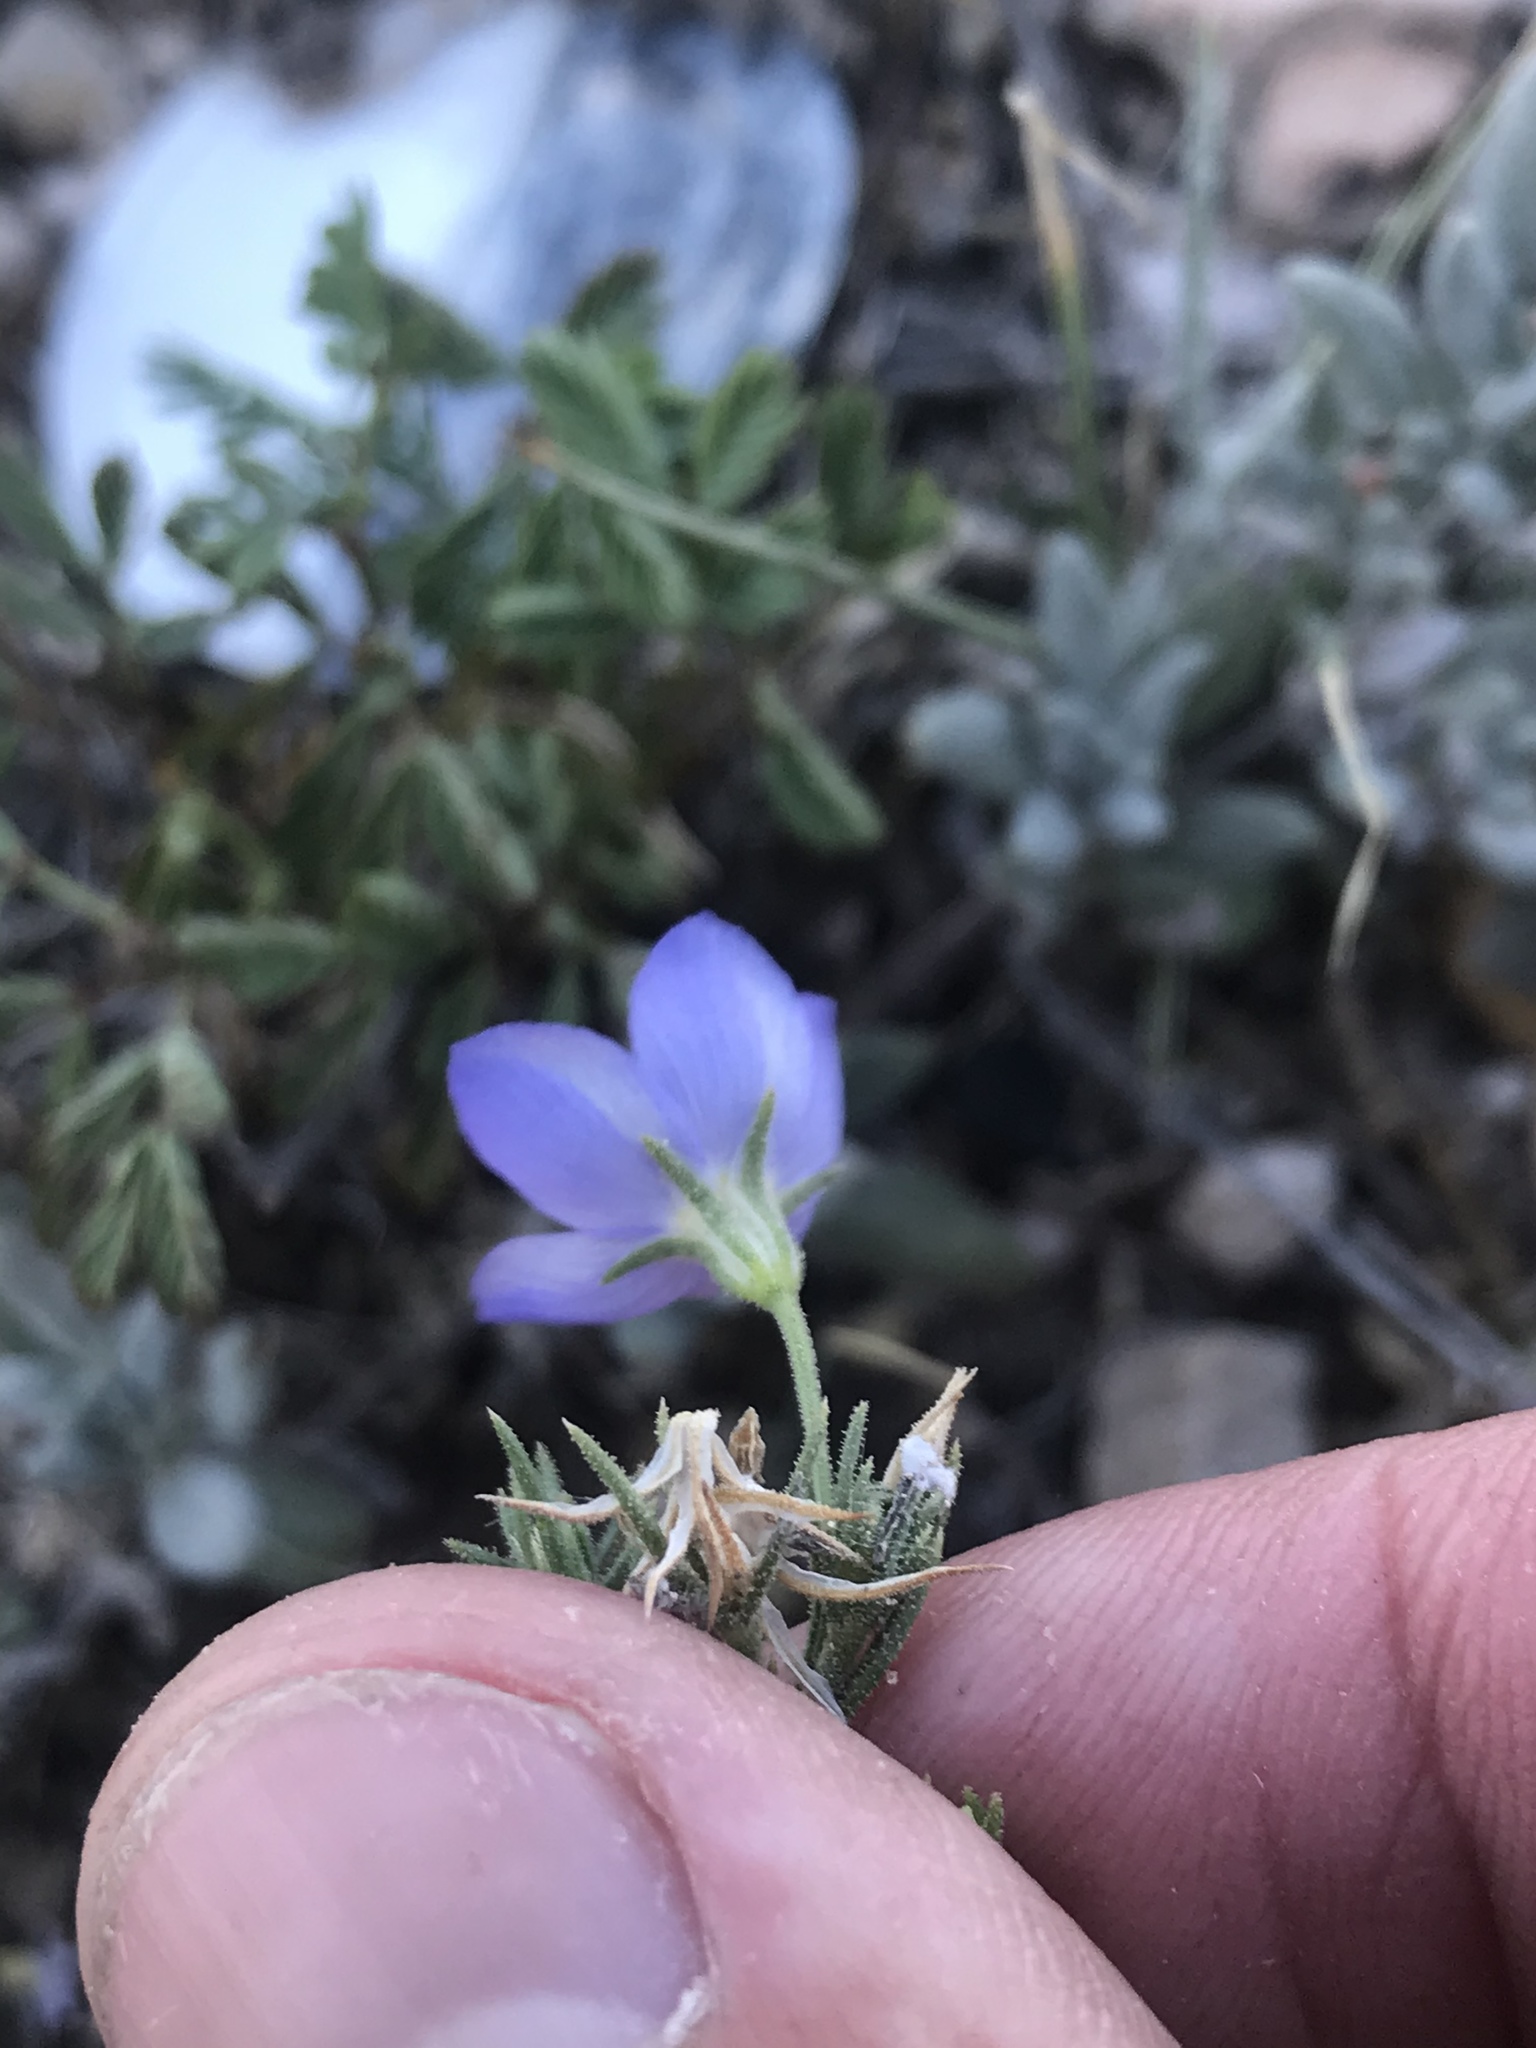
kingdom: Plantae
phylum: Tracheophyta
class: Magnoliopsida
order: Ericales
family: Polemoniaceae
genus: Giliastrum
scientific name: Giliastrum acerosum
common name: Bluebowls
